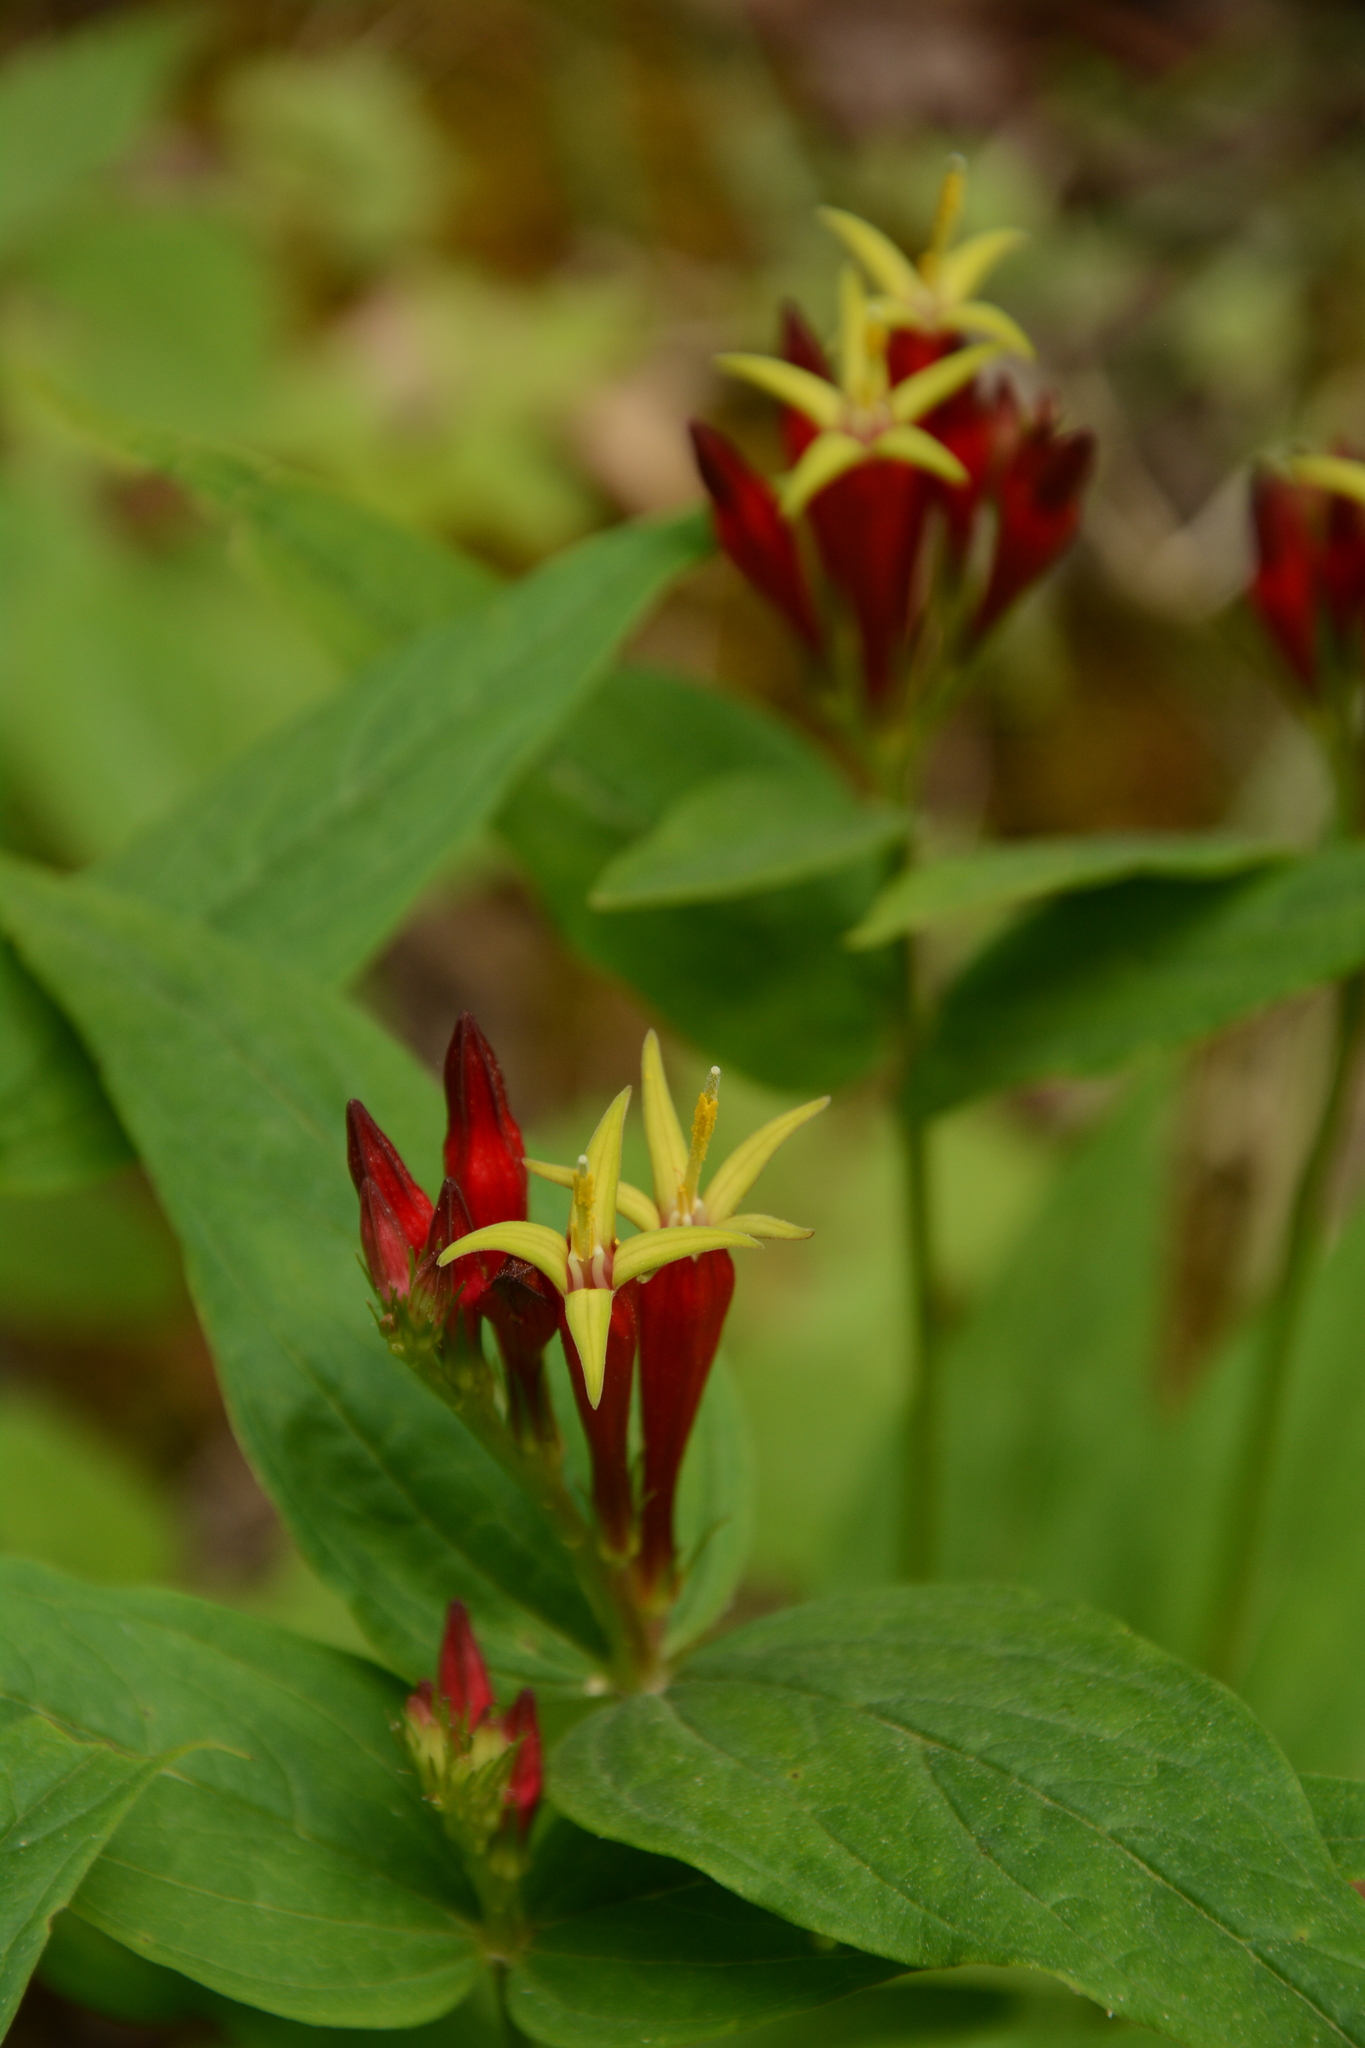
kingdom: Plantae
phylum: Tracheophyta
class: Magnoliopsida
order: Gentianales
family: Loganiaceae
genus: Spigelia
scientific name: Spigelia marilandica
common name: Indian-pink
